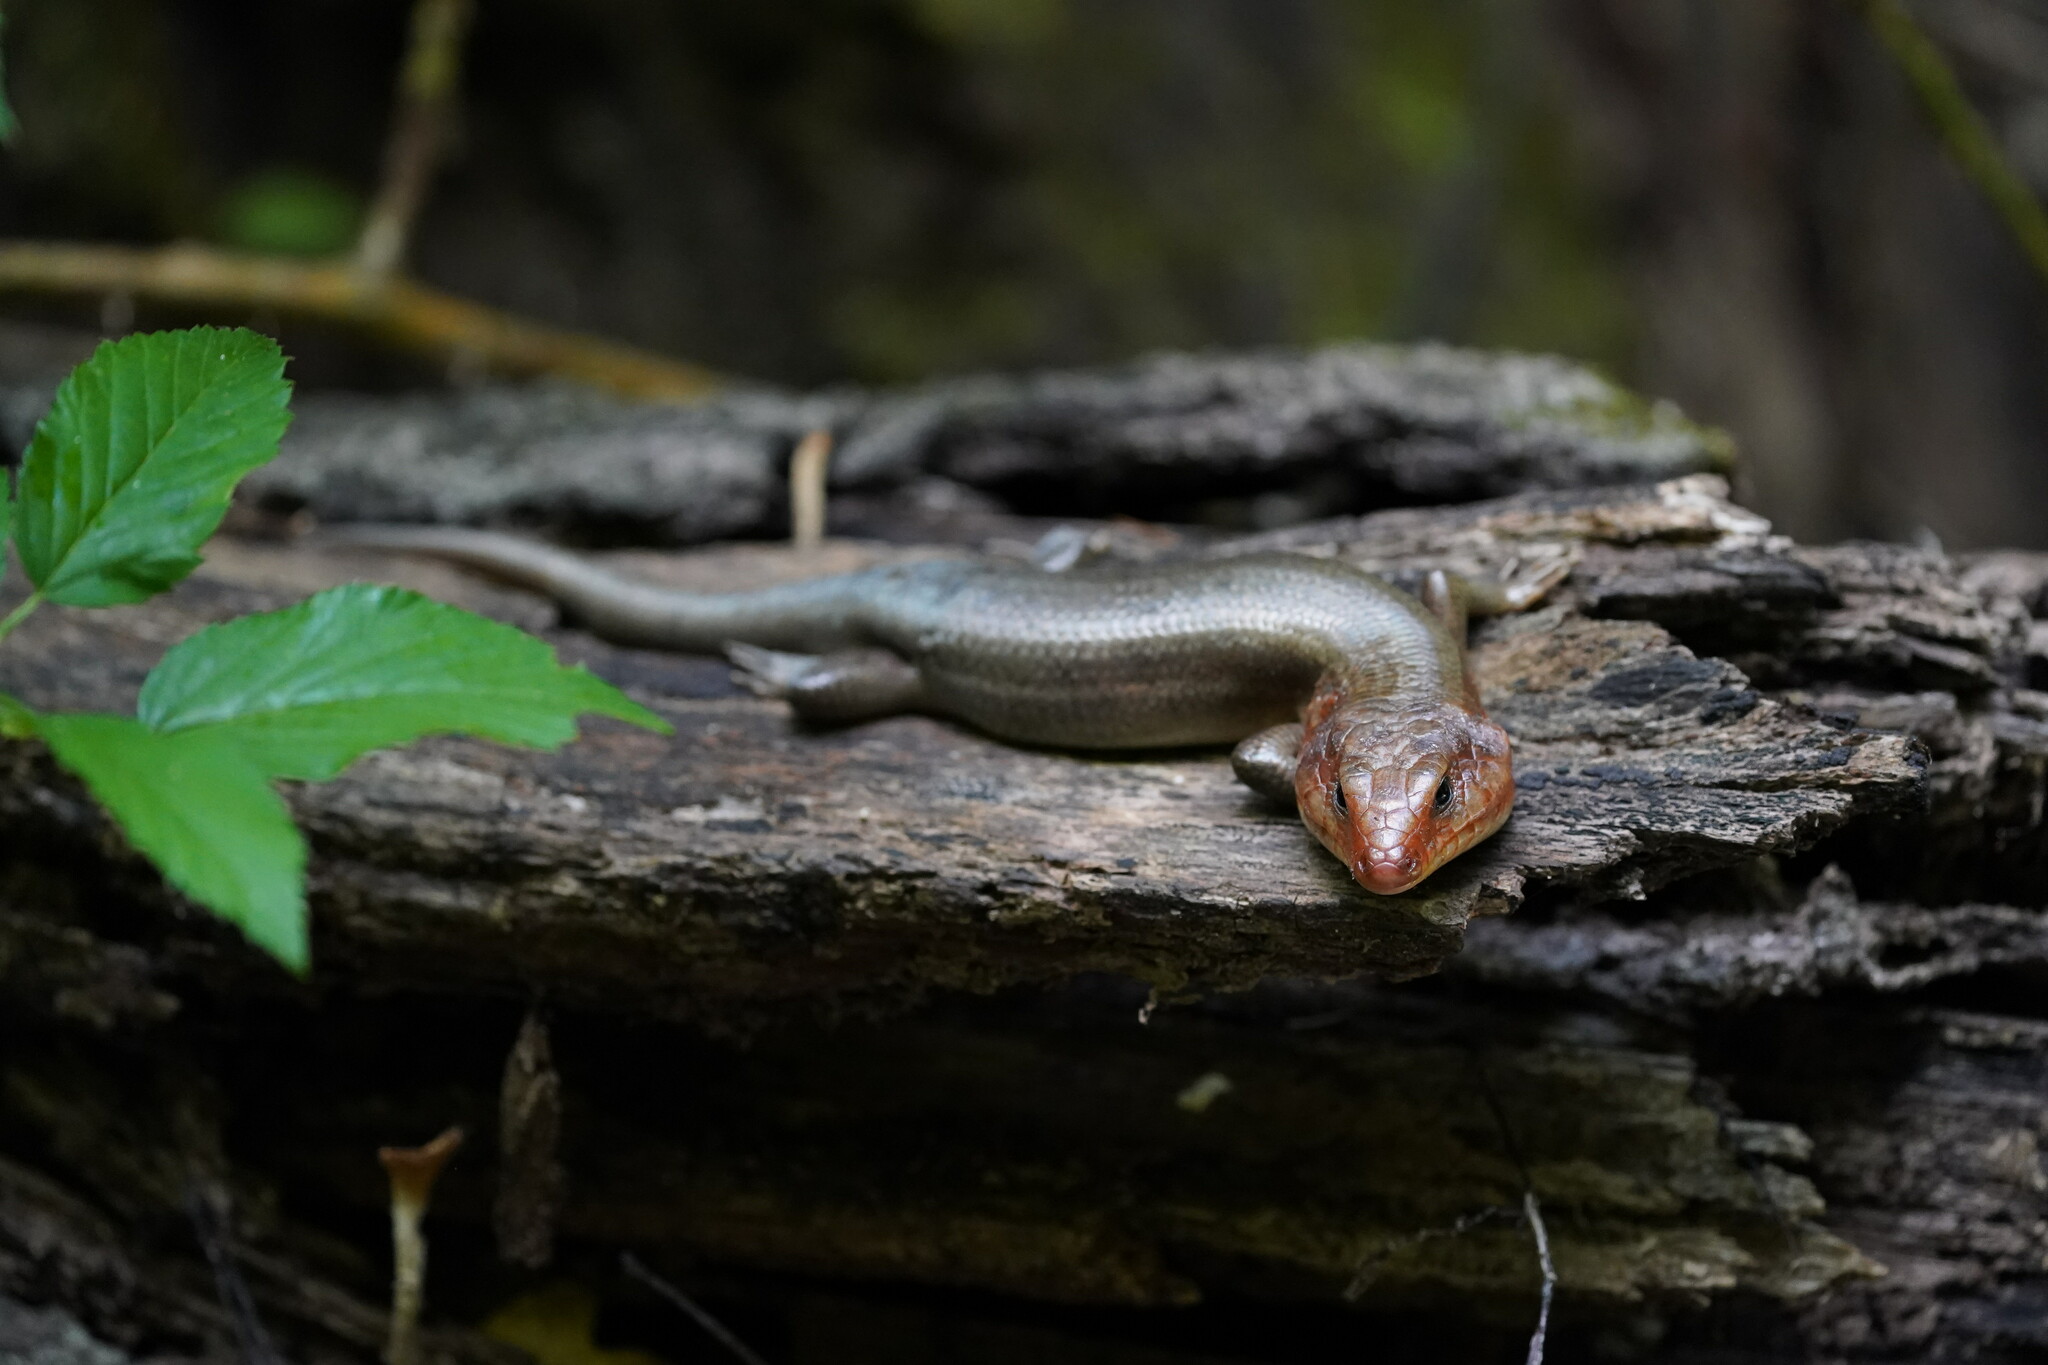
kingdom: Animalia
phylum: Chordata
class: Squamata
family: Scincidae
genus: Plestiodon
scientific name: Plestiodon laticeps
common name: Broadhead skink
